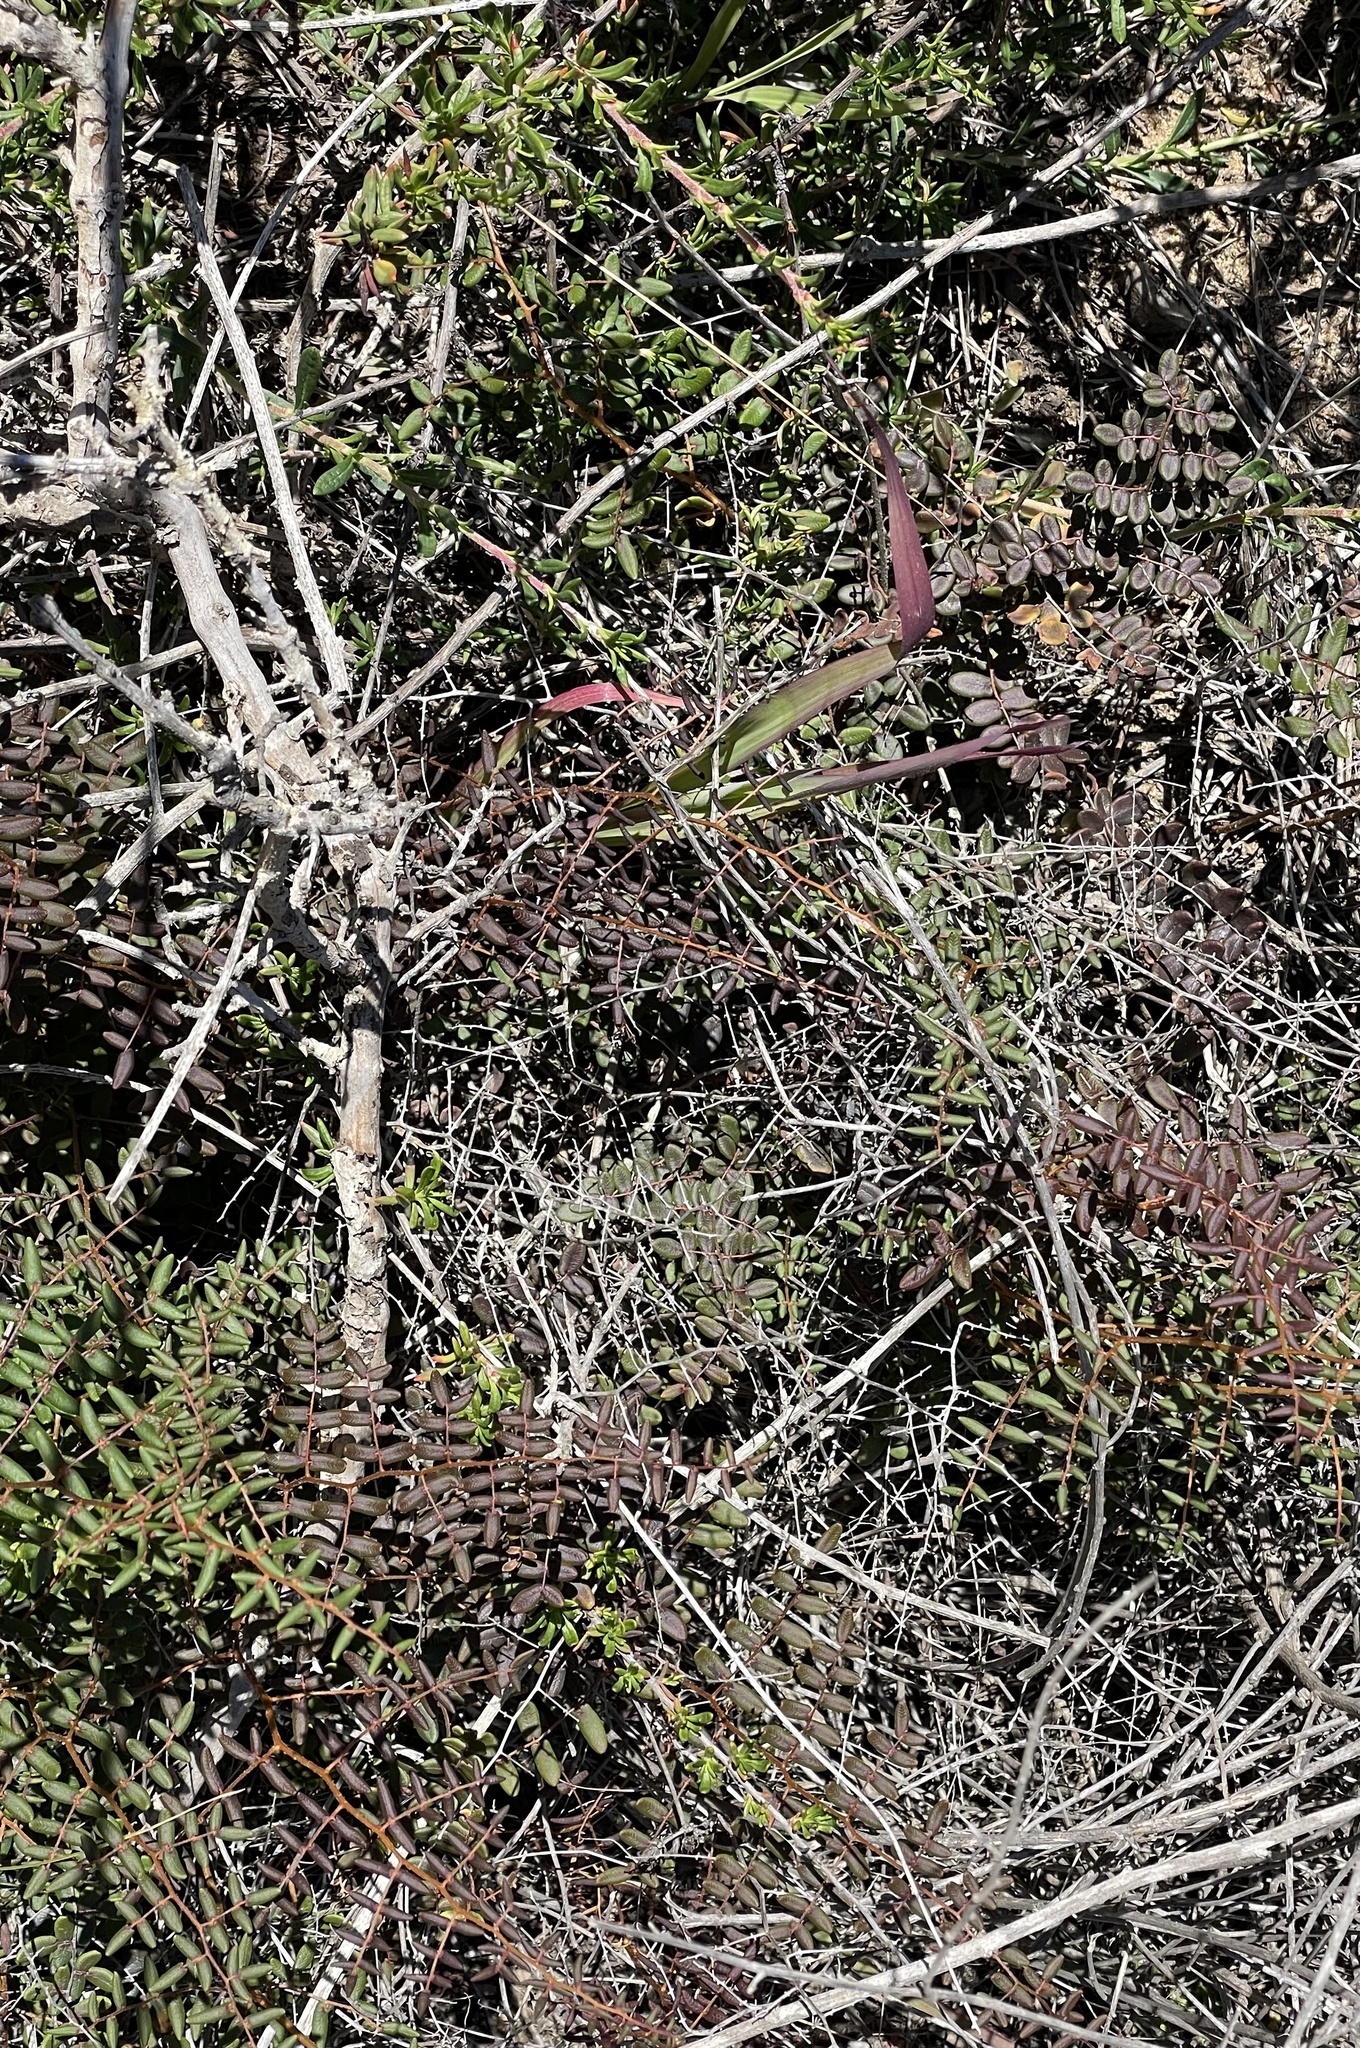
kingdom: Plantae
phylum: Tracheophyta
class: Polypodiopsida
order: Polypodiales
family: Pteridaceae
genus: Pellaea
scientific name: Pellaea andromedifolia
